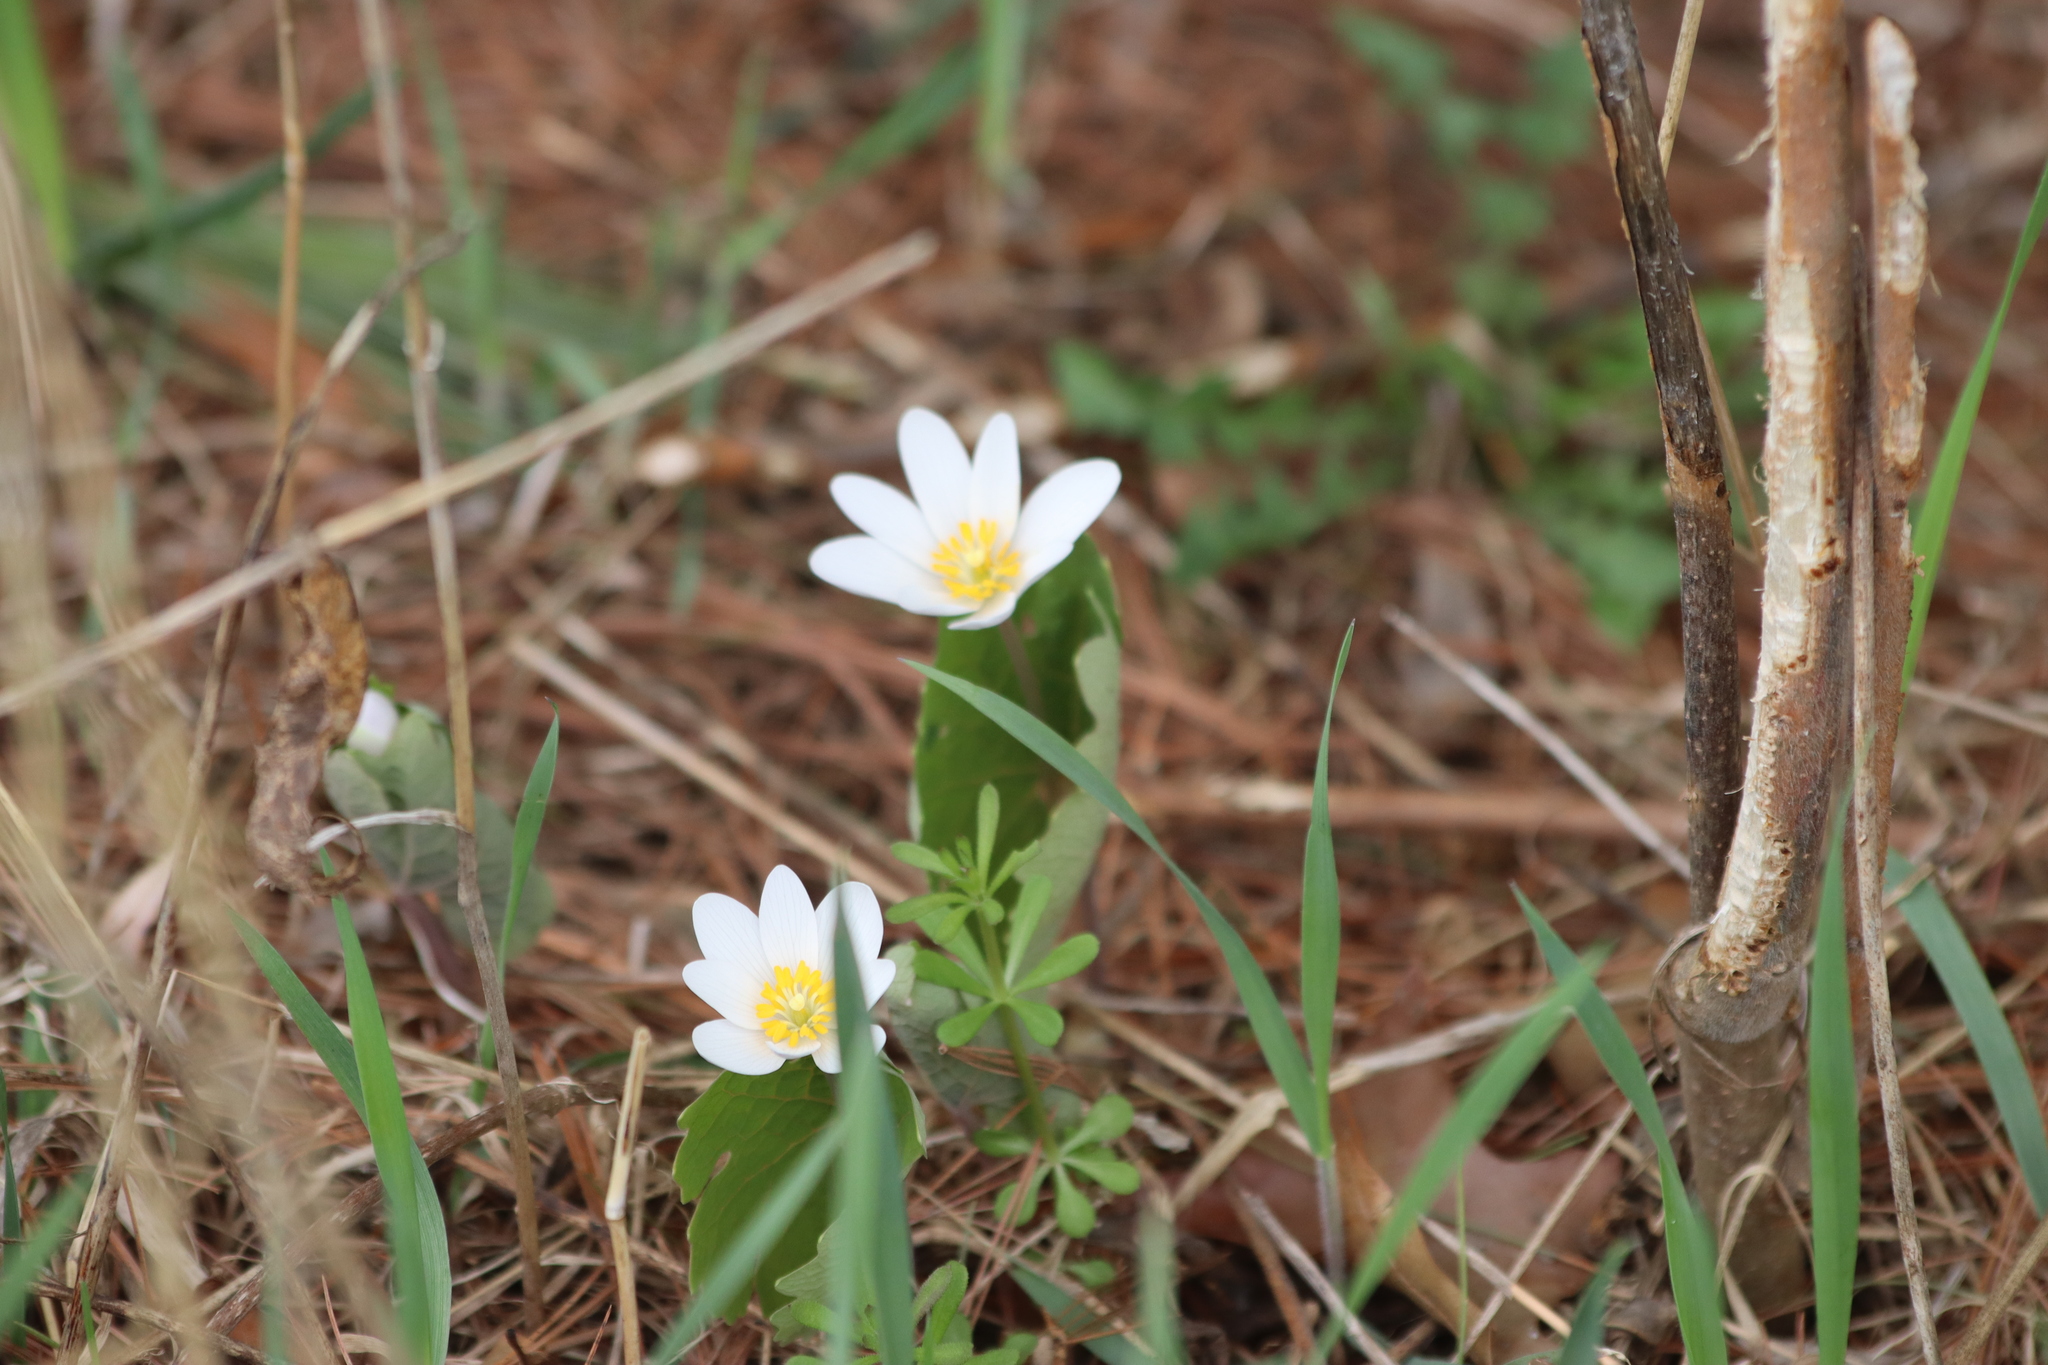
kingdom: Plantae
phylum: Tracheophyta
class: Magnoliopsida
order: Ranunculales
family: Papaveraceae
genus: Sanguinaria
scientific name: Sanguinaria canadensis
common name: Bloodroot
